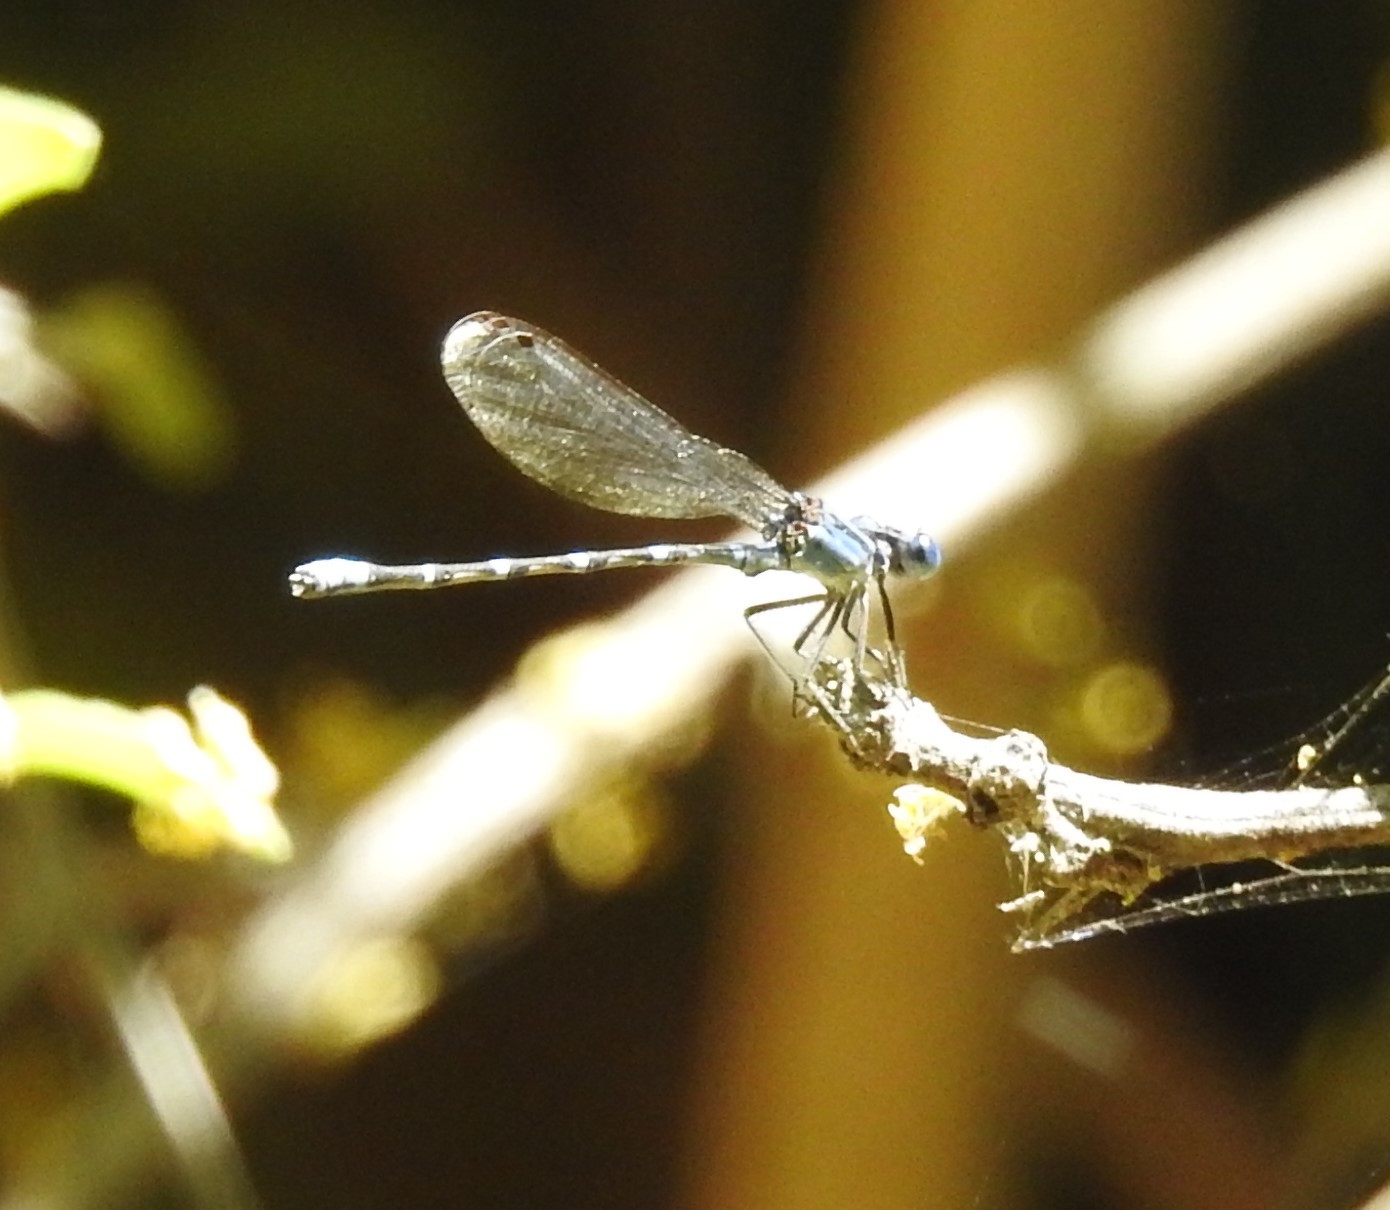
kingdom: Animalia
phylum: Arthropoda
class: Insecta
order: Odonata
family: Coenagrionidae
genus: Argia
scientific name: Argia sedula
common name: Blue-ringed dancer
